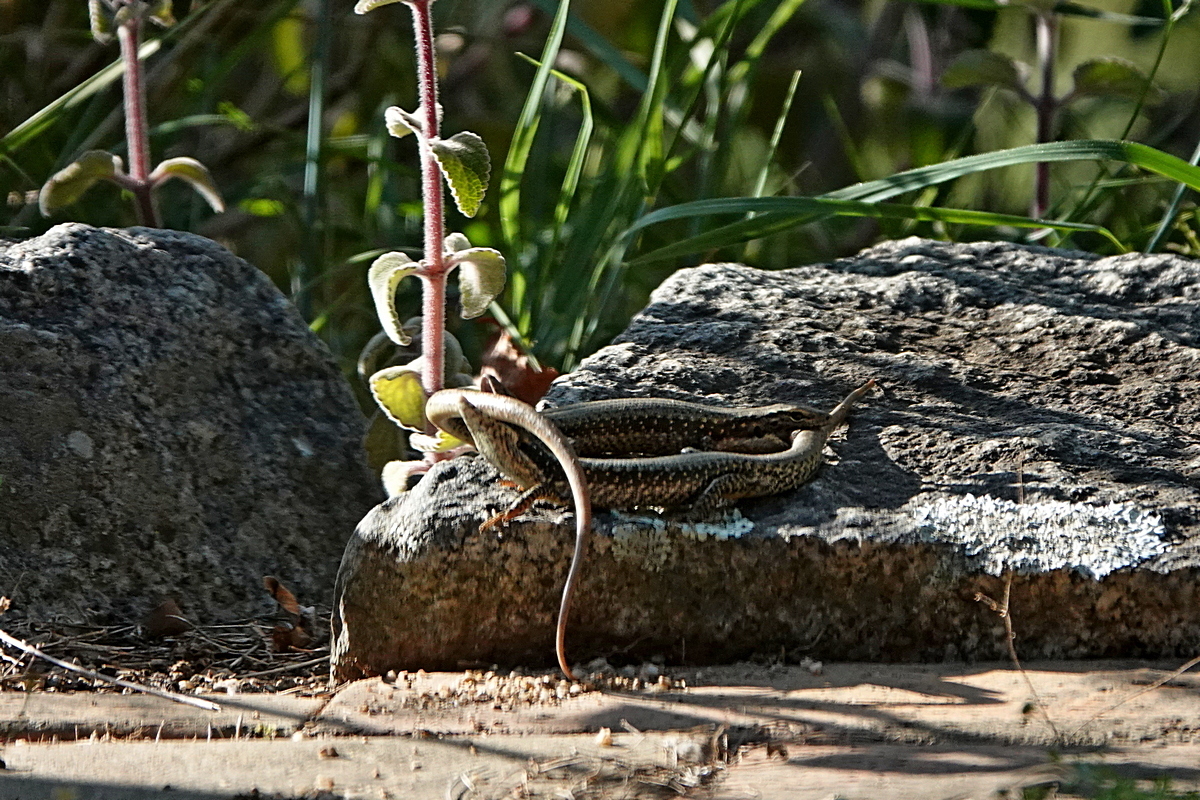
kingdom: Animalia
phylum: Chordata
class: Squamata
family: Scincidae
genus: Eulamprus
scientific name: Eulamprus heatwolei
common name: Warm-temperate water-skink
